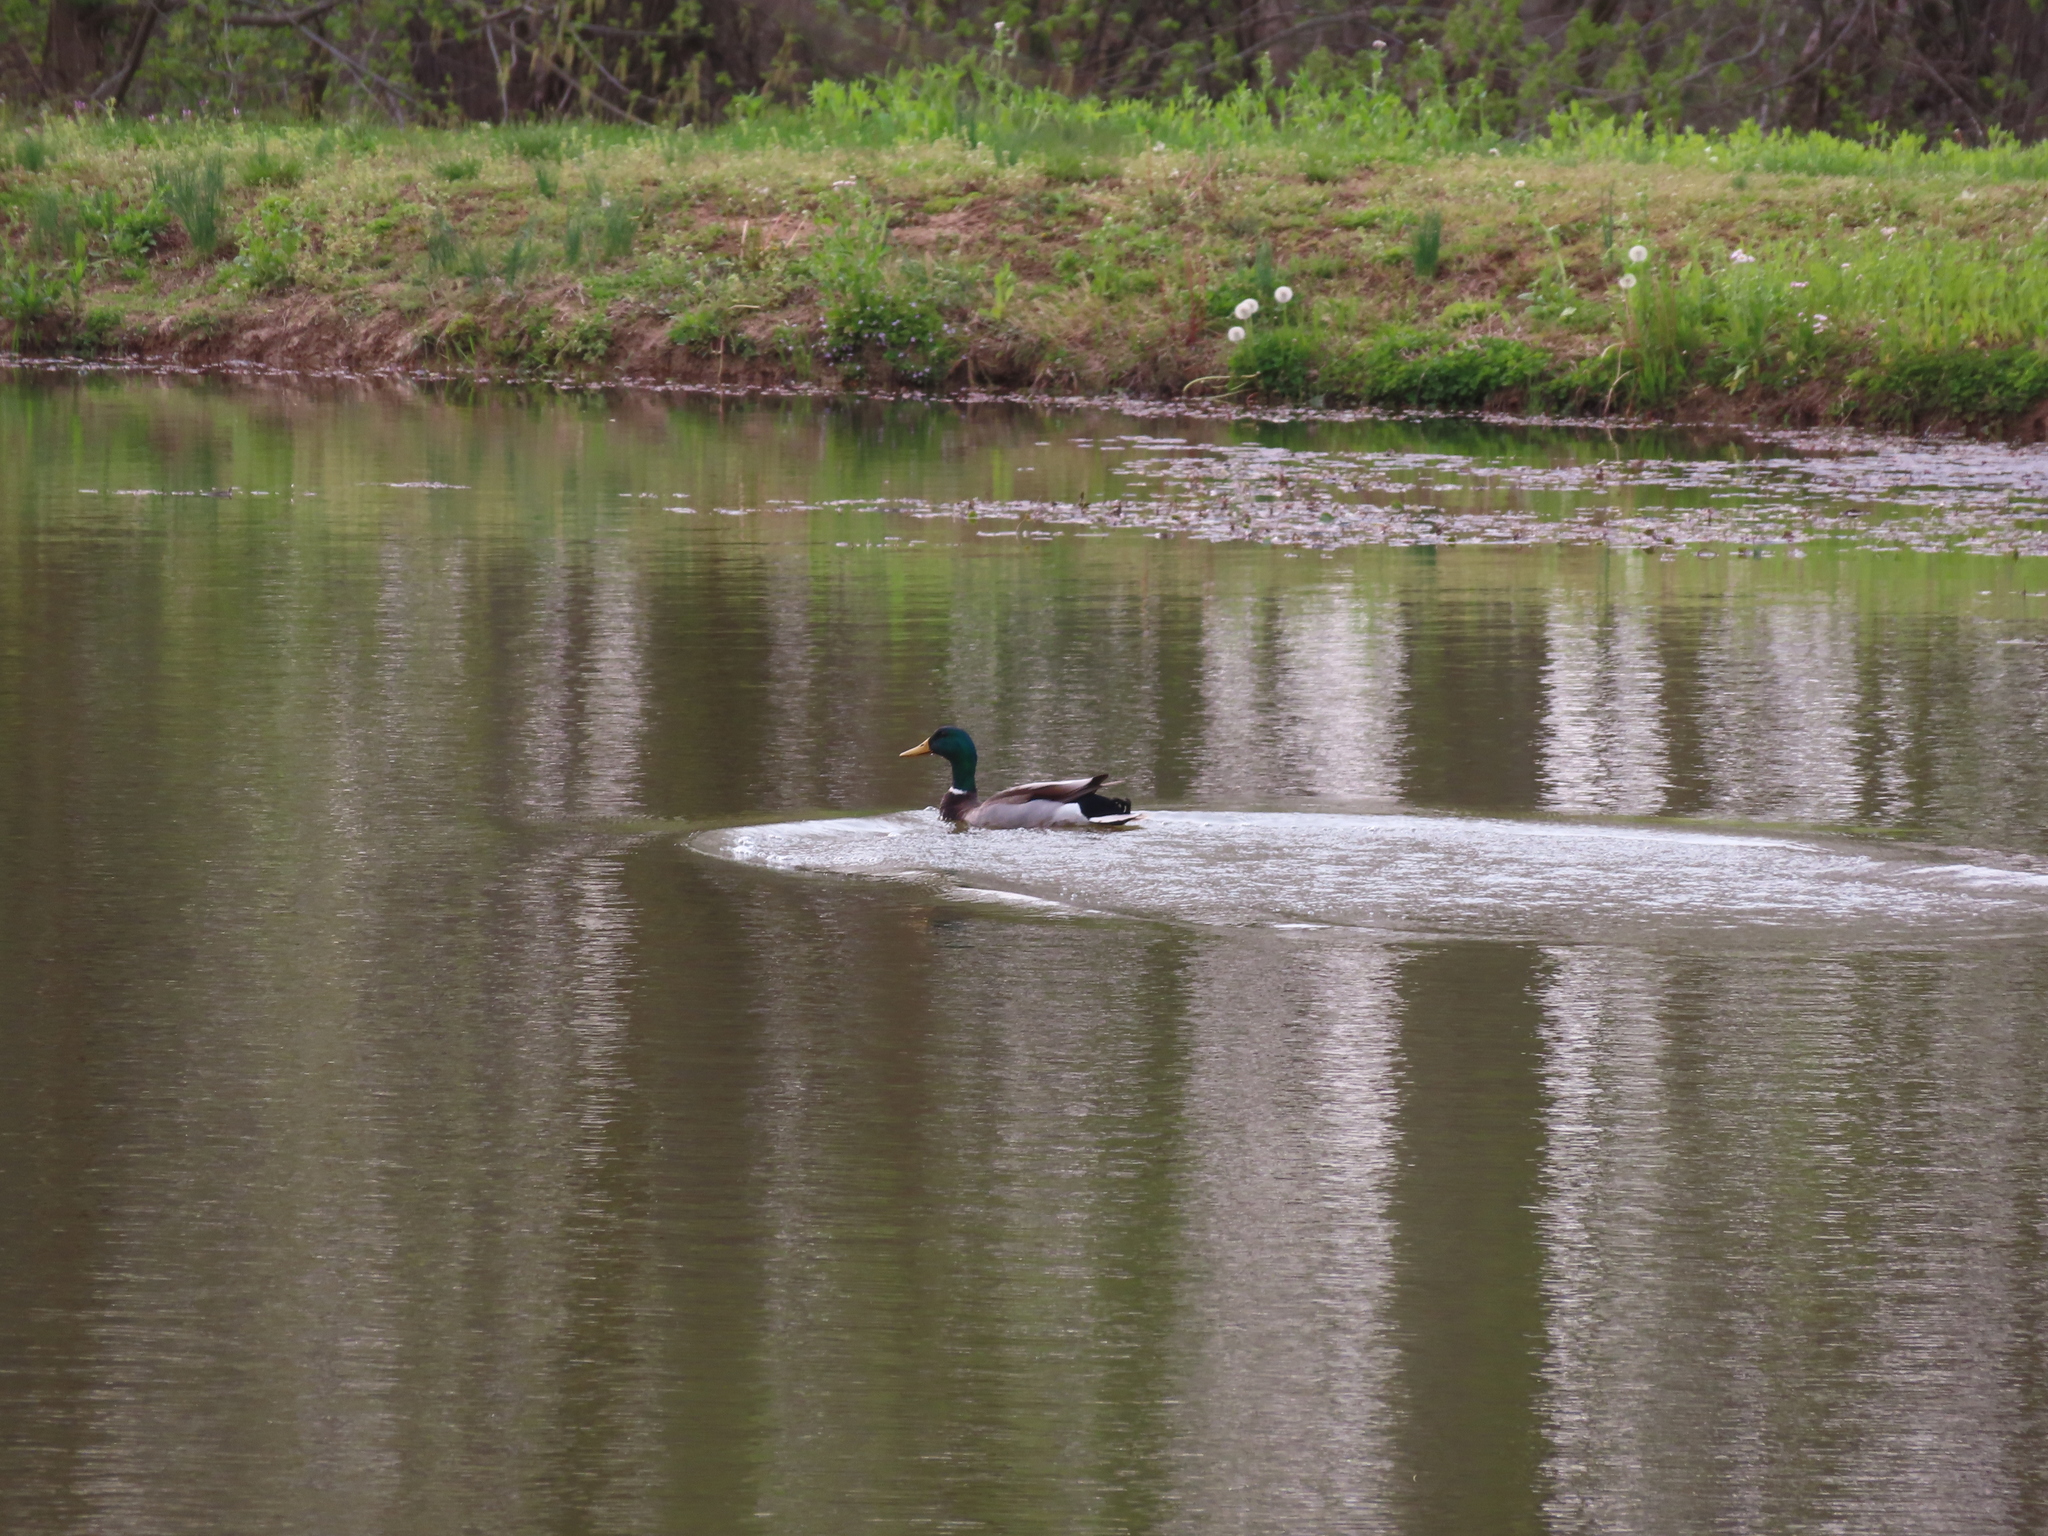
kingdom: Animalia
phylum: Chordata
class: Aves
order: Anseriformes
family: Anatidae
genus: Anas
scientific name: Anas platyrhynchos
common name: Mallard
